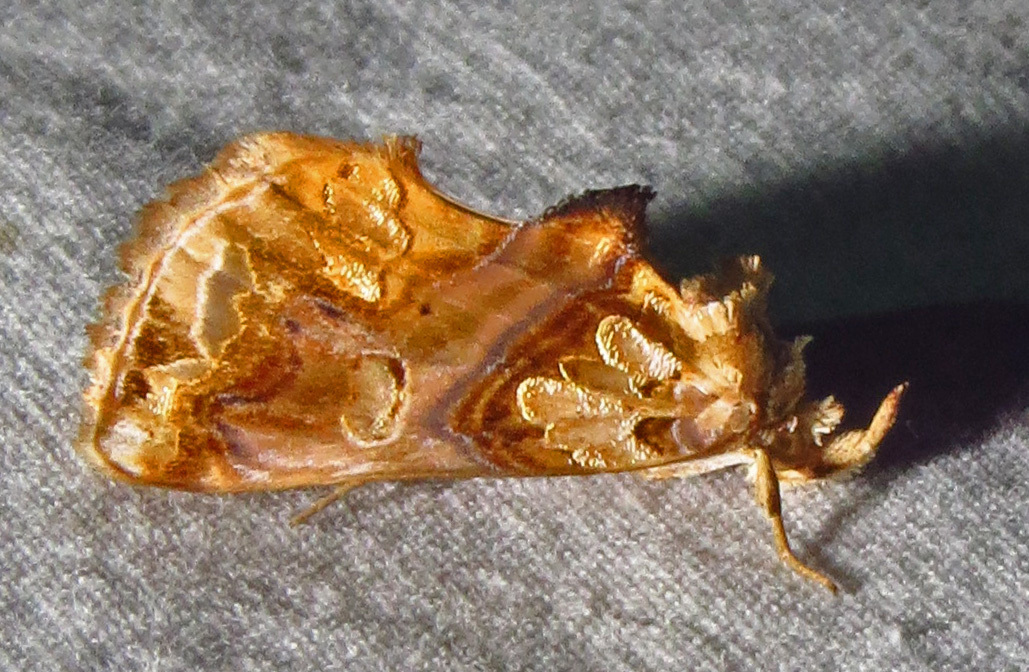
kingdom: Animalia
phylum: Arthropoda
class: Insecta
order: Lepidoptera
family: Erebidae
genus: Plusiodonta
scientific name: Plusiodonta compressipalpis
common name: Moonseed moth
